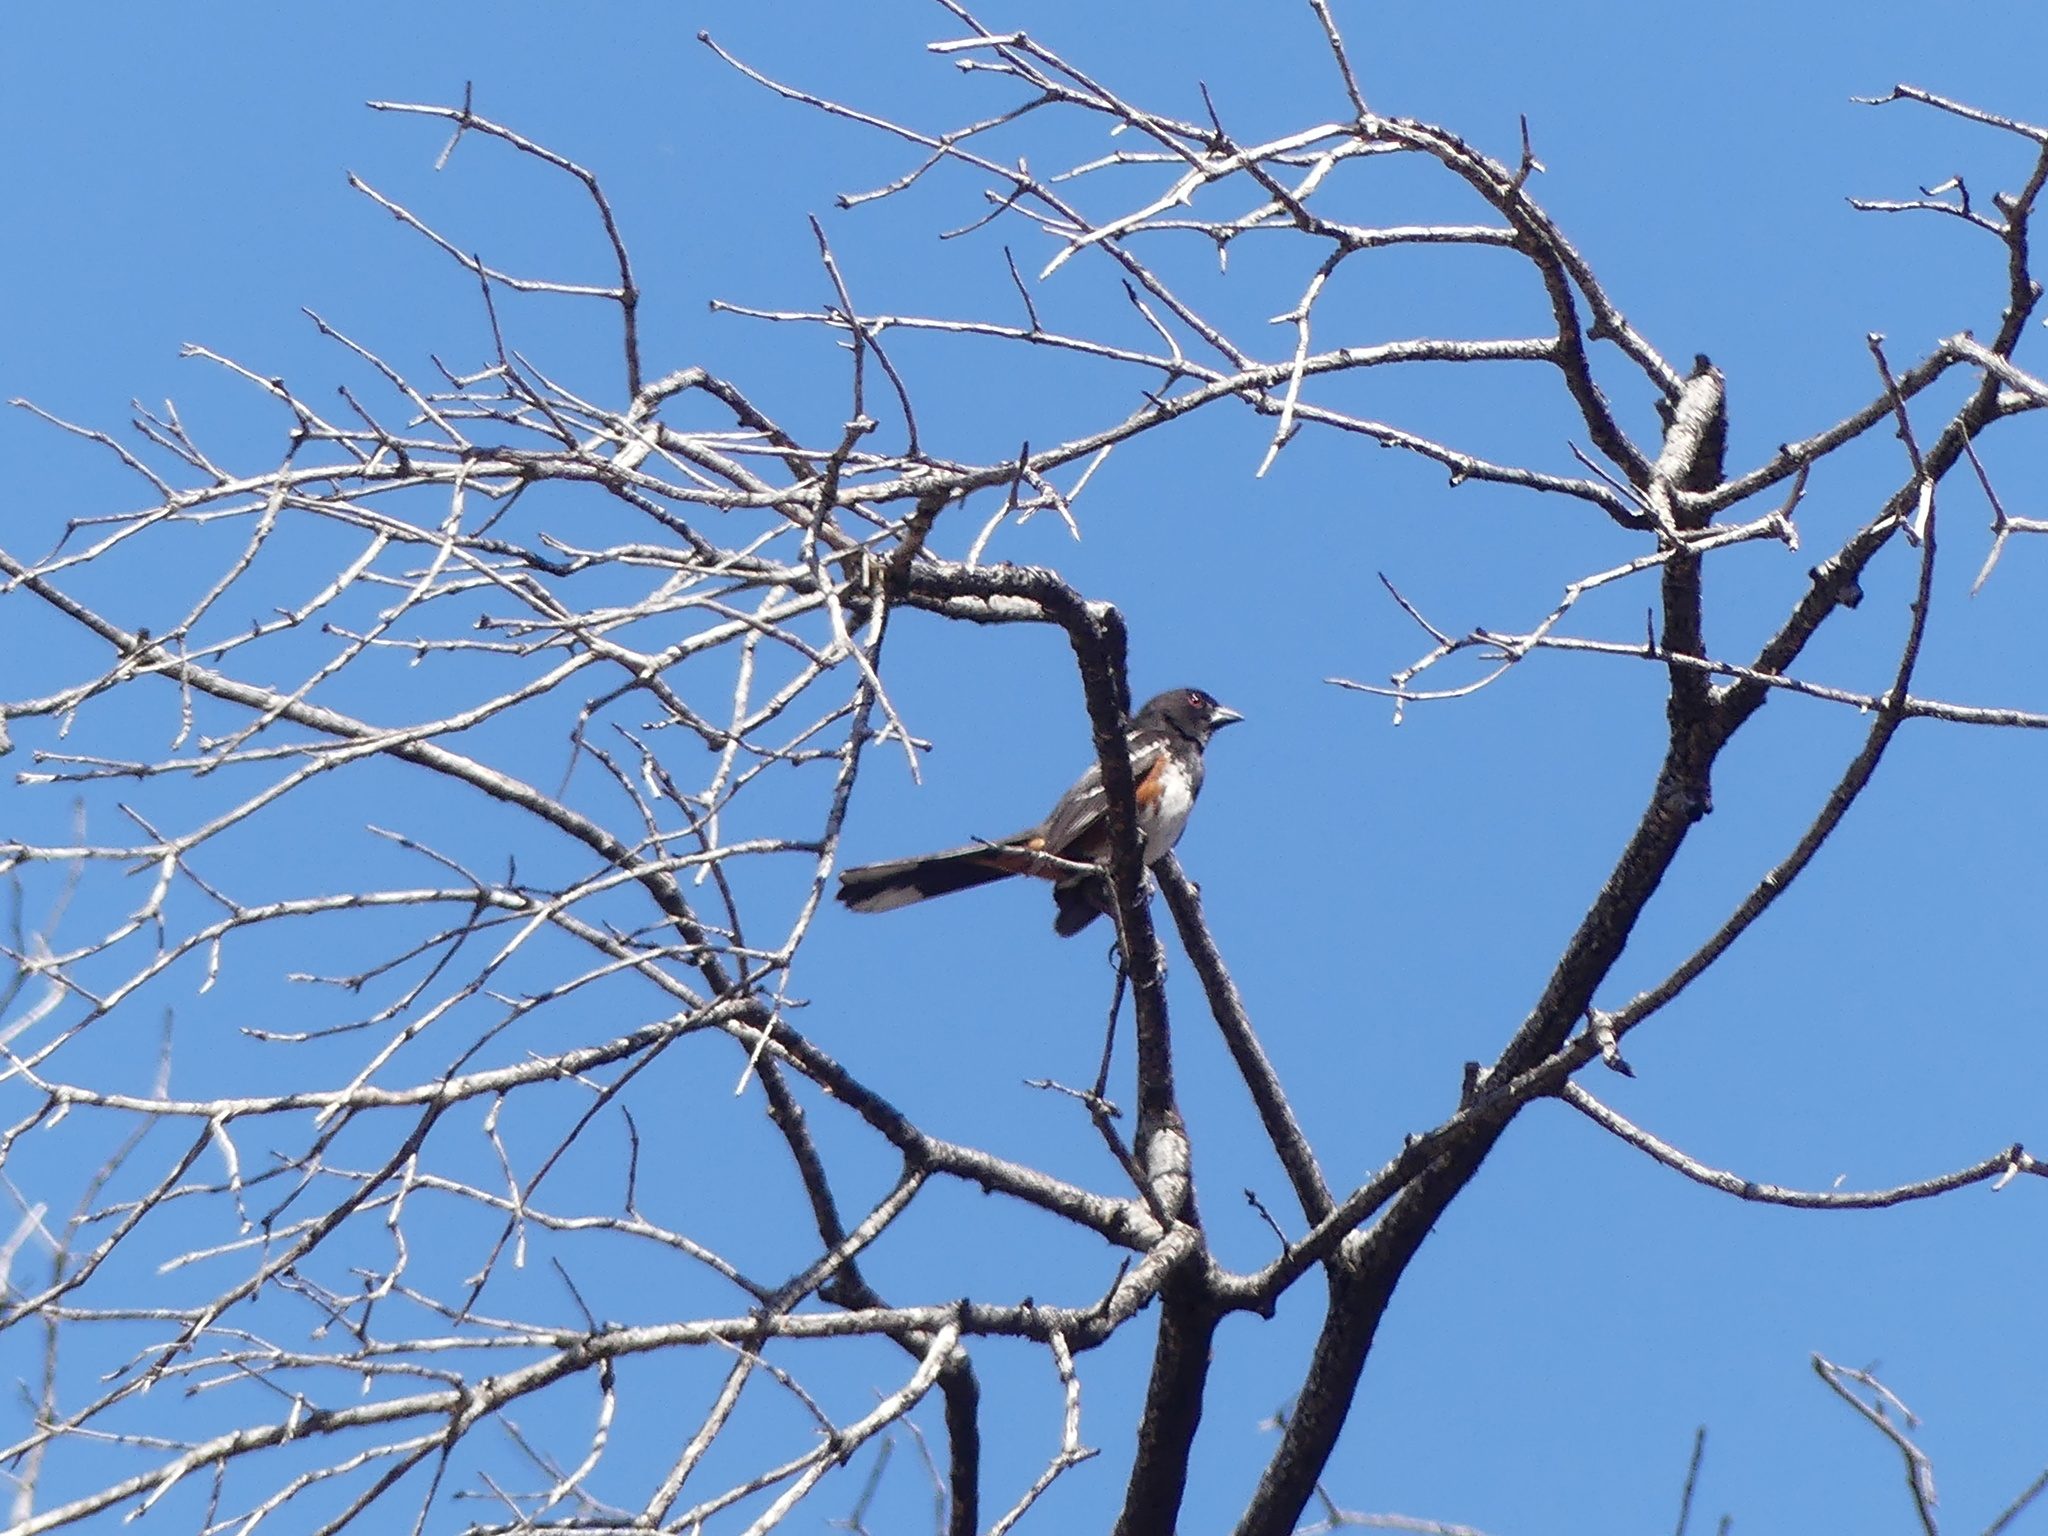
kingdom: Animalia
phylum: Chordata
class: Aves
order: Passeriformes
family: Passerellidae
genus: Pipilo
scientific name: Pipilo maculatus
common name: Spotted towhee
